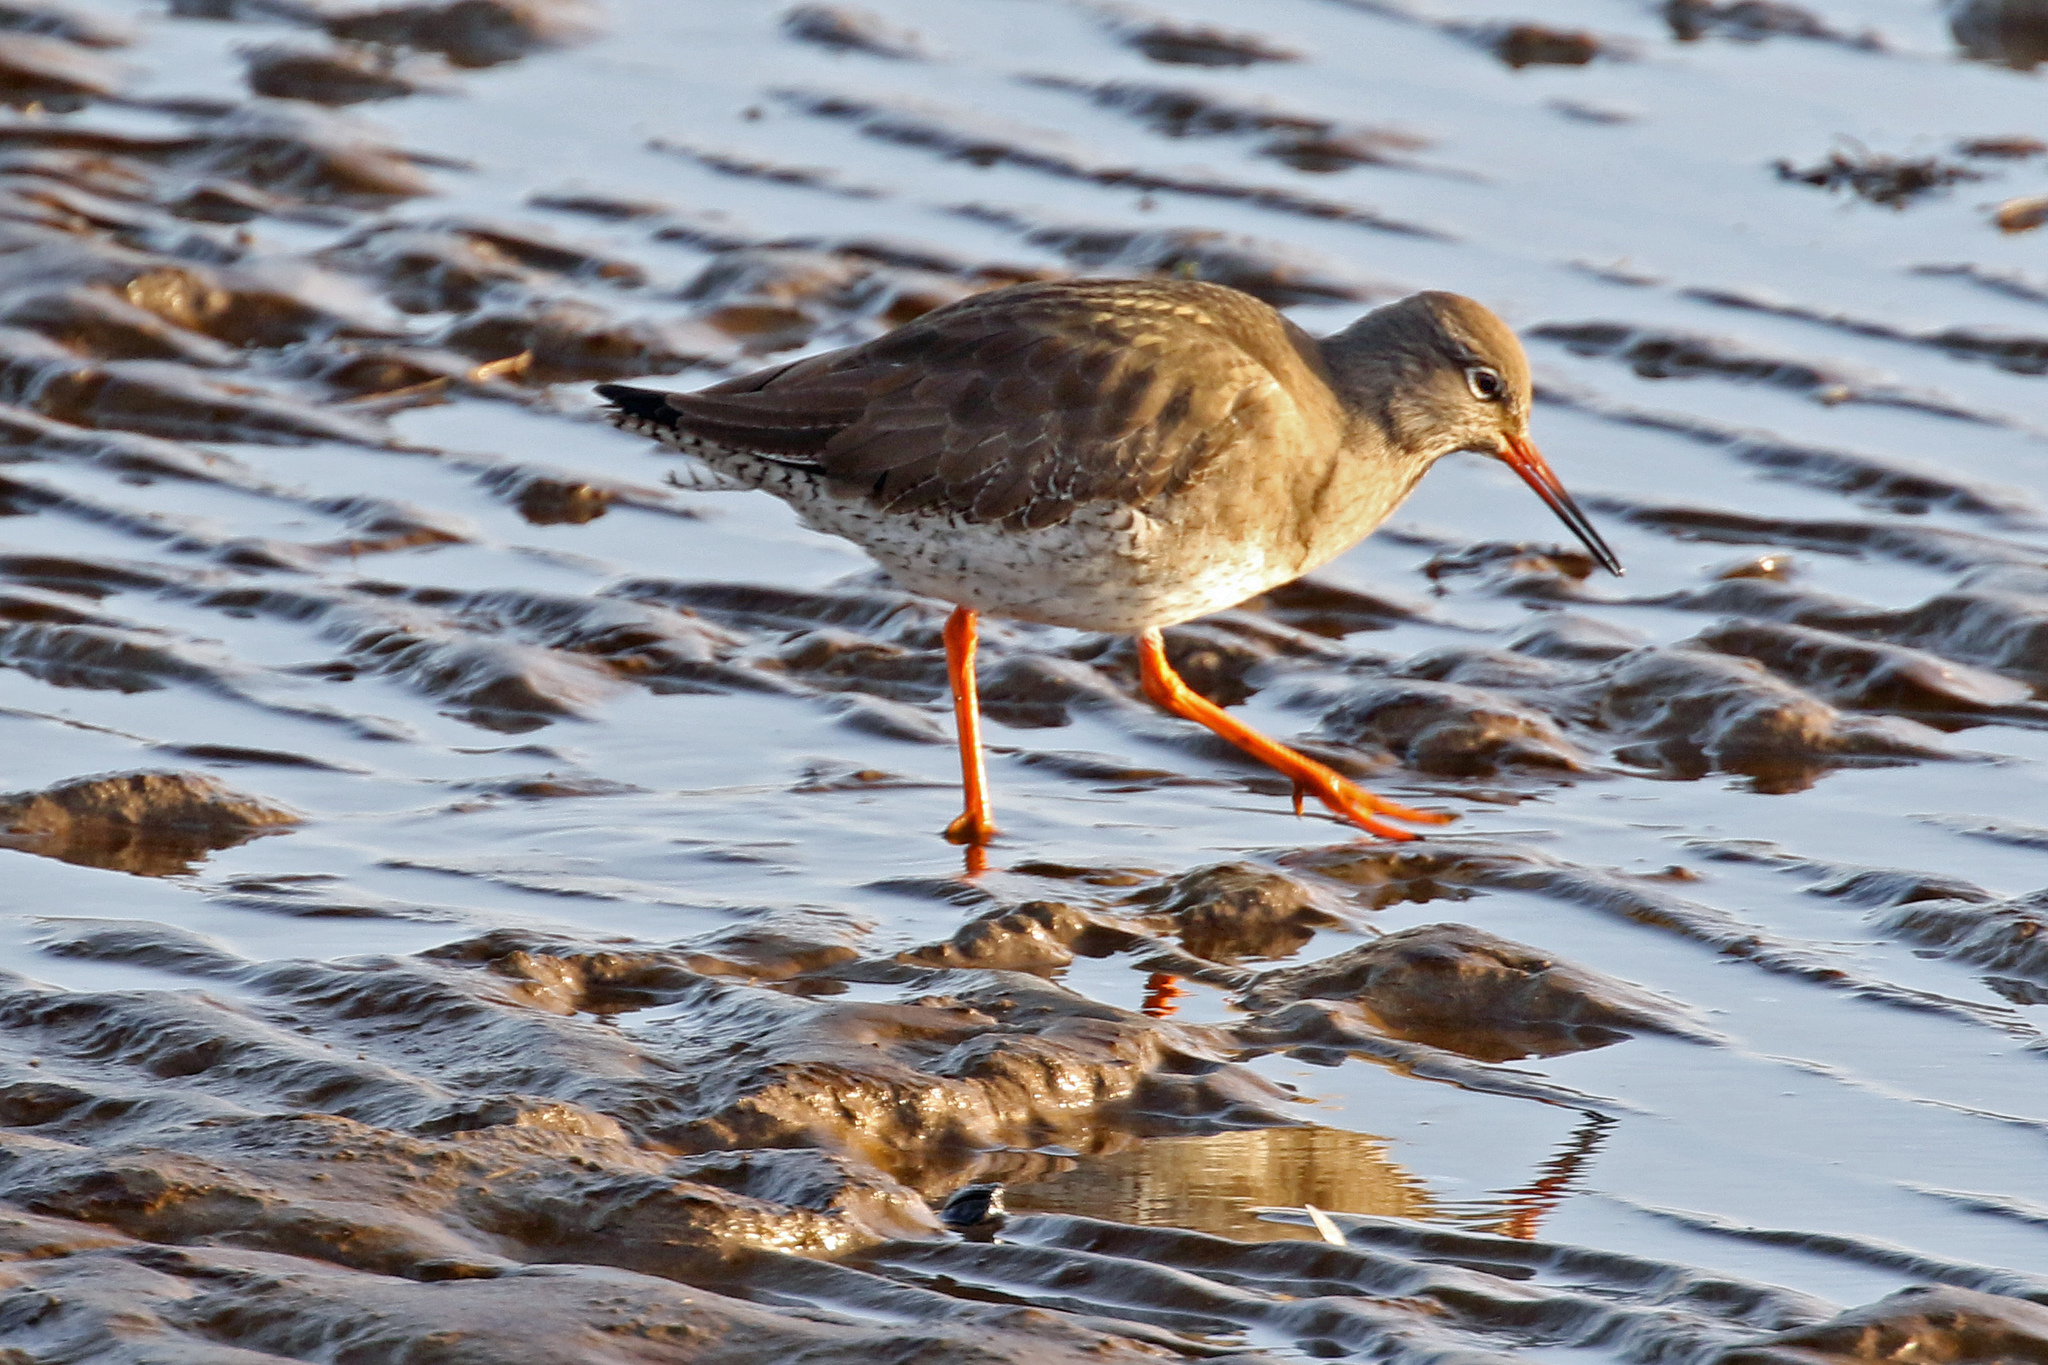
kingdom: Animalia
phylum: Chordata
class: Aves
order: Charadriiformes
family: Scolopacidae
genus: Tringa
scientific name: Tringa totanus
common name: Common redshank
